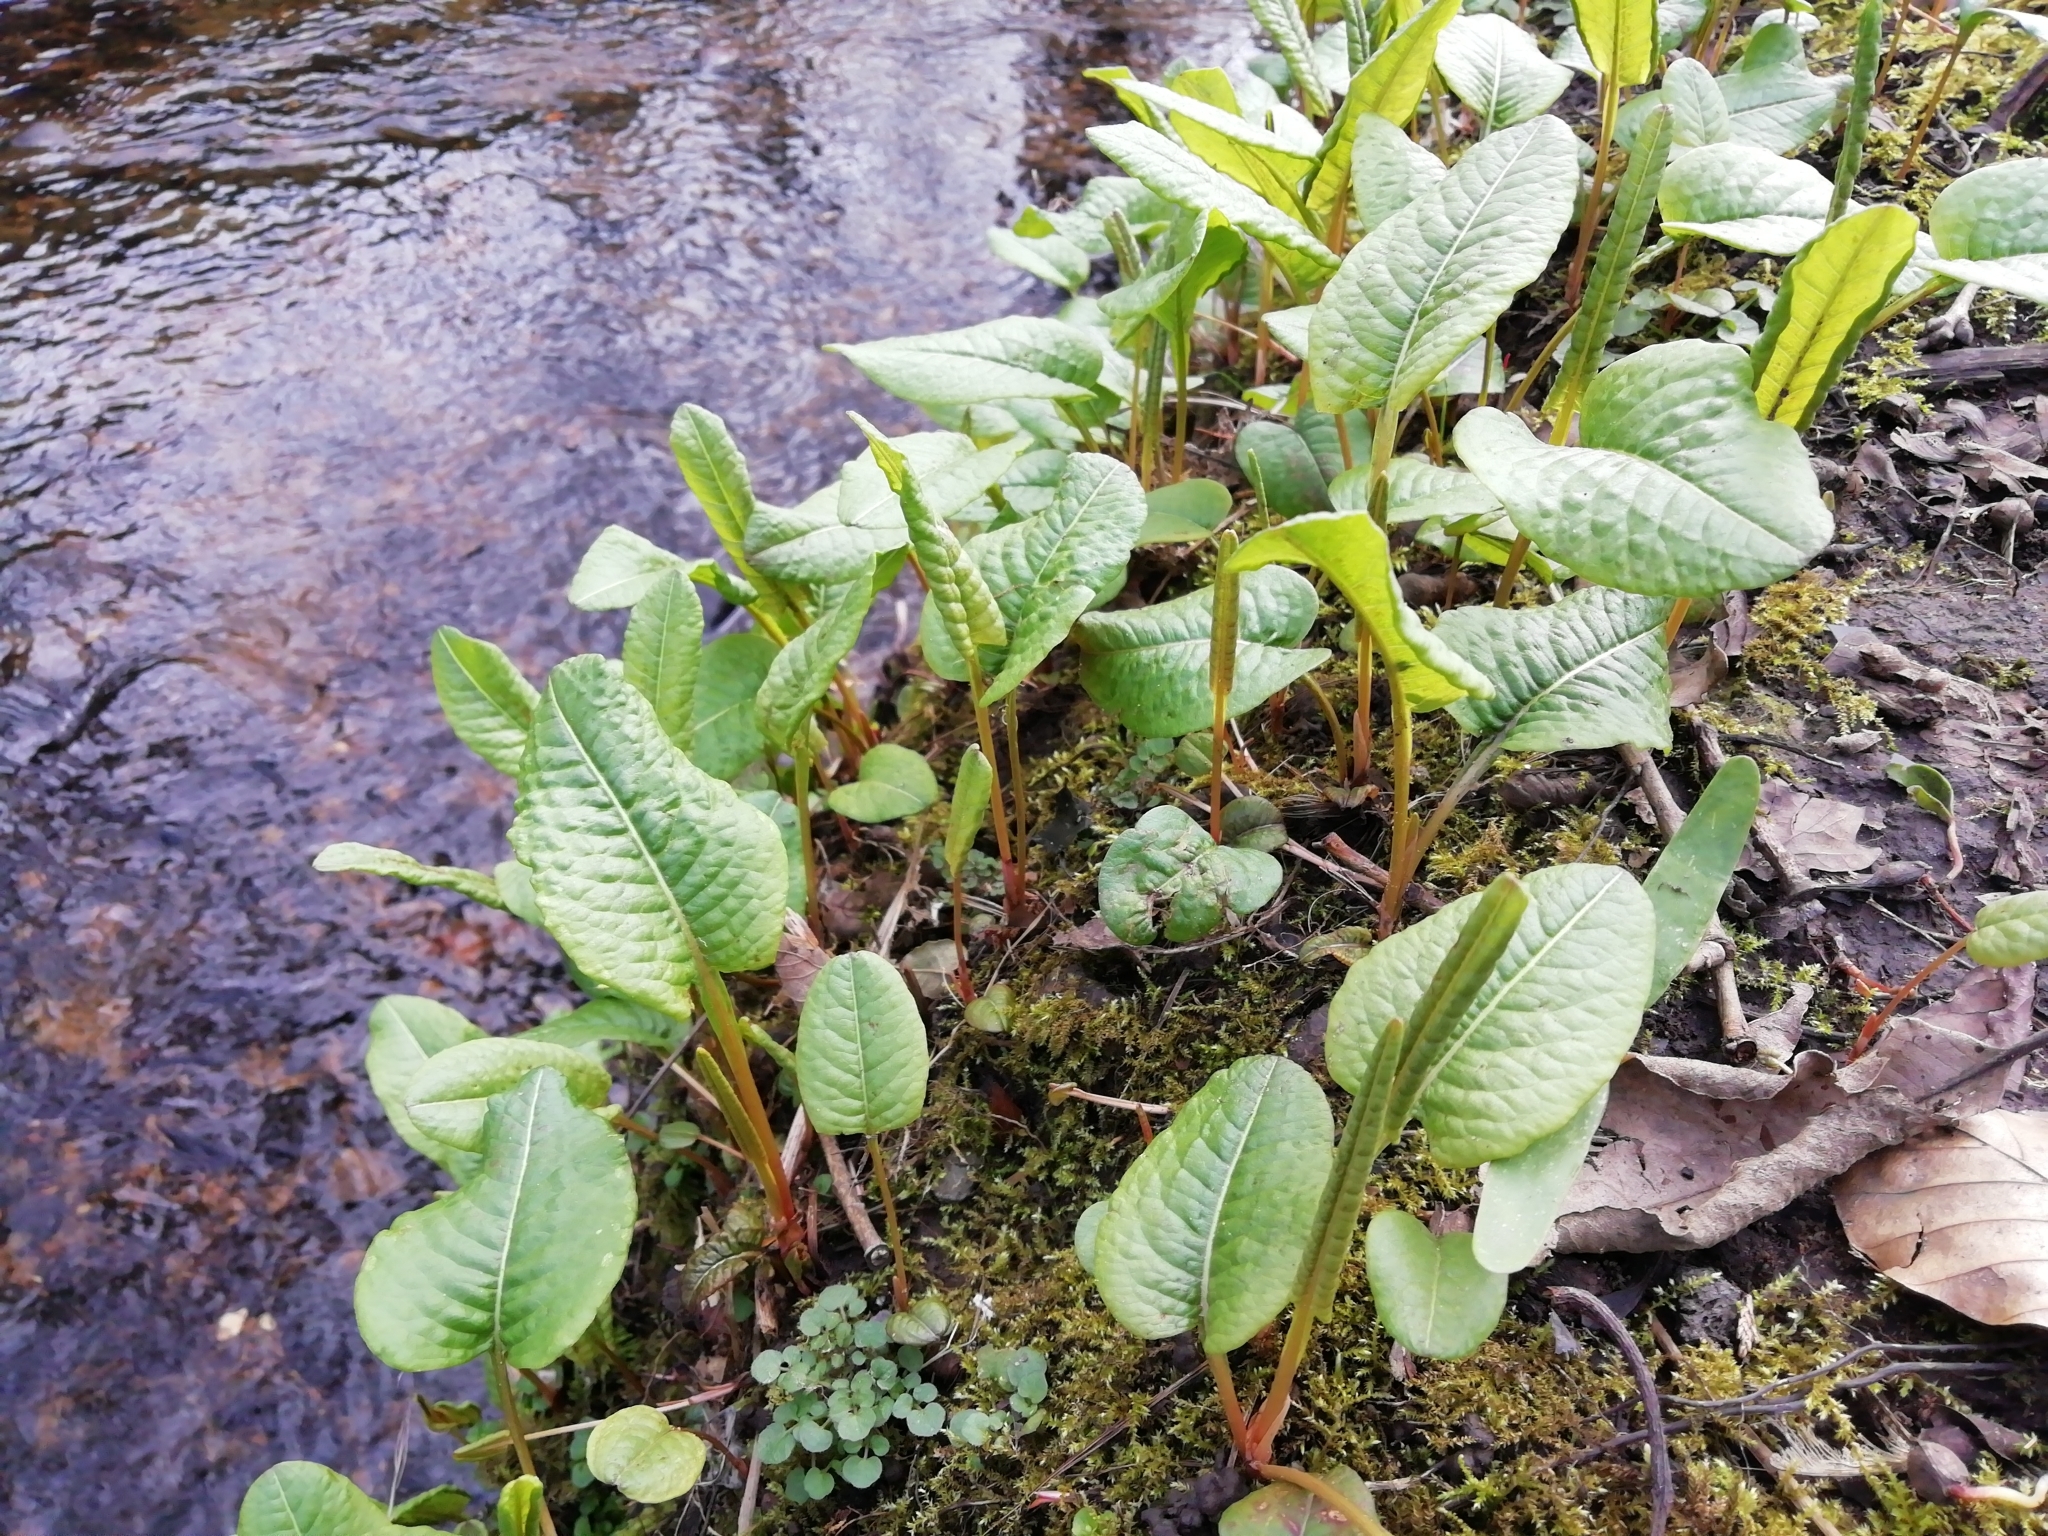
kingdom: Plantae
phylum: Tracheophyta
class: Magnoliopsida
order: Caryophyllales
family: Polygonaceae
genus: Bistorta
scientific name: Bistorta officinalis
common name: Common bistort
